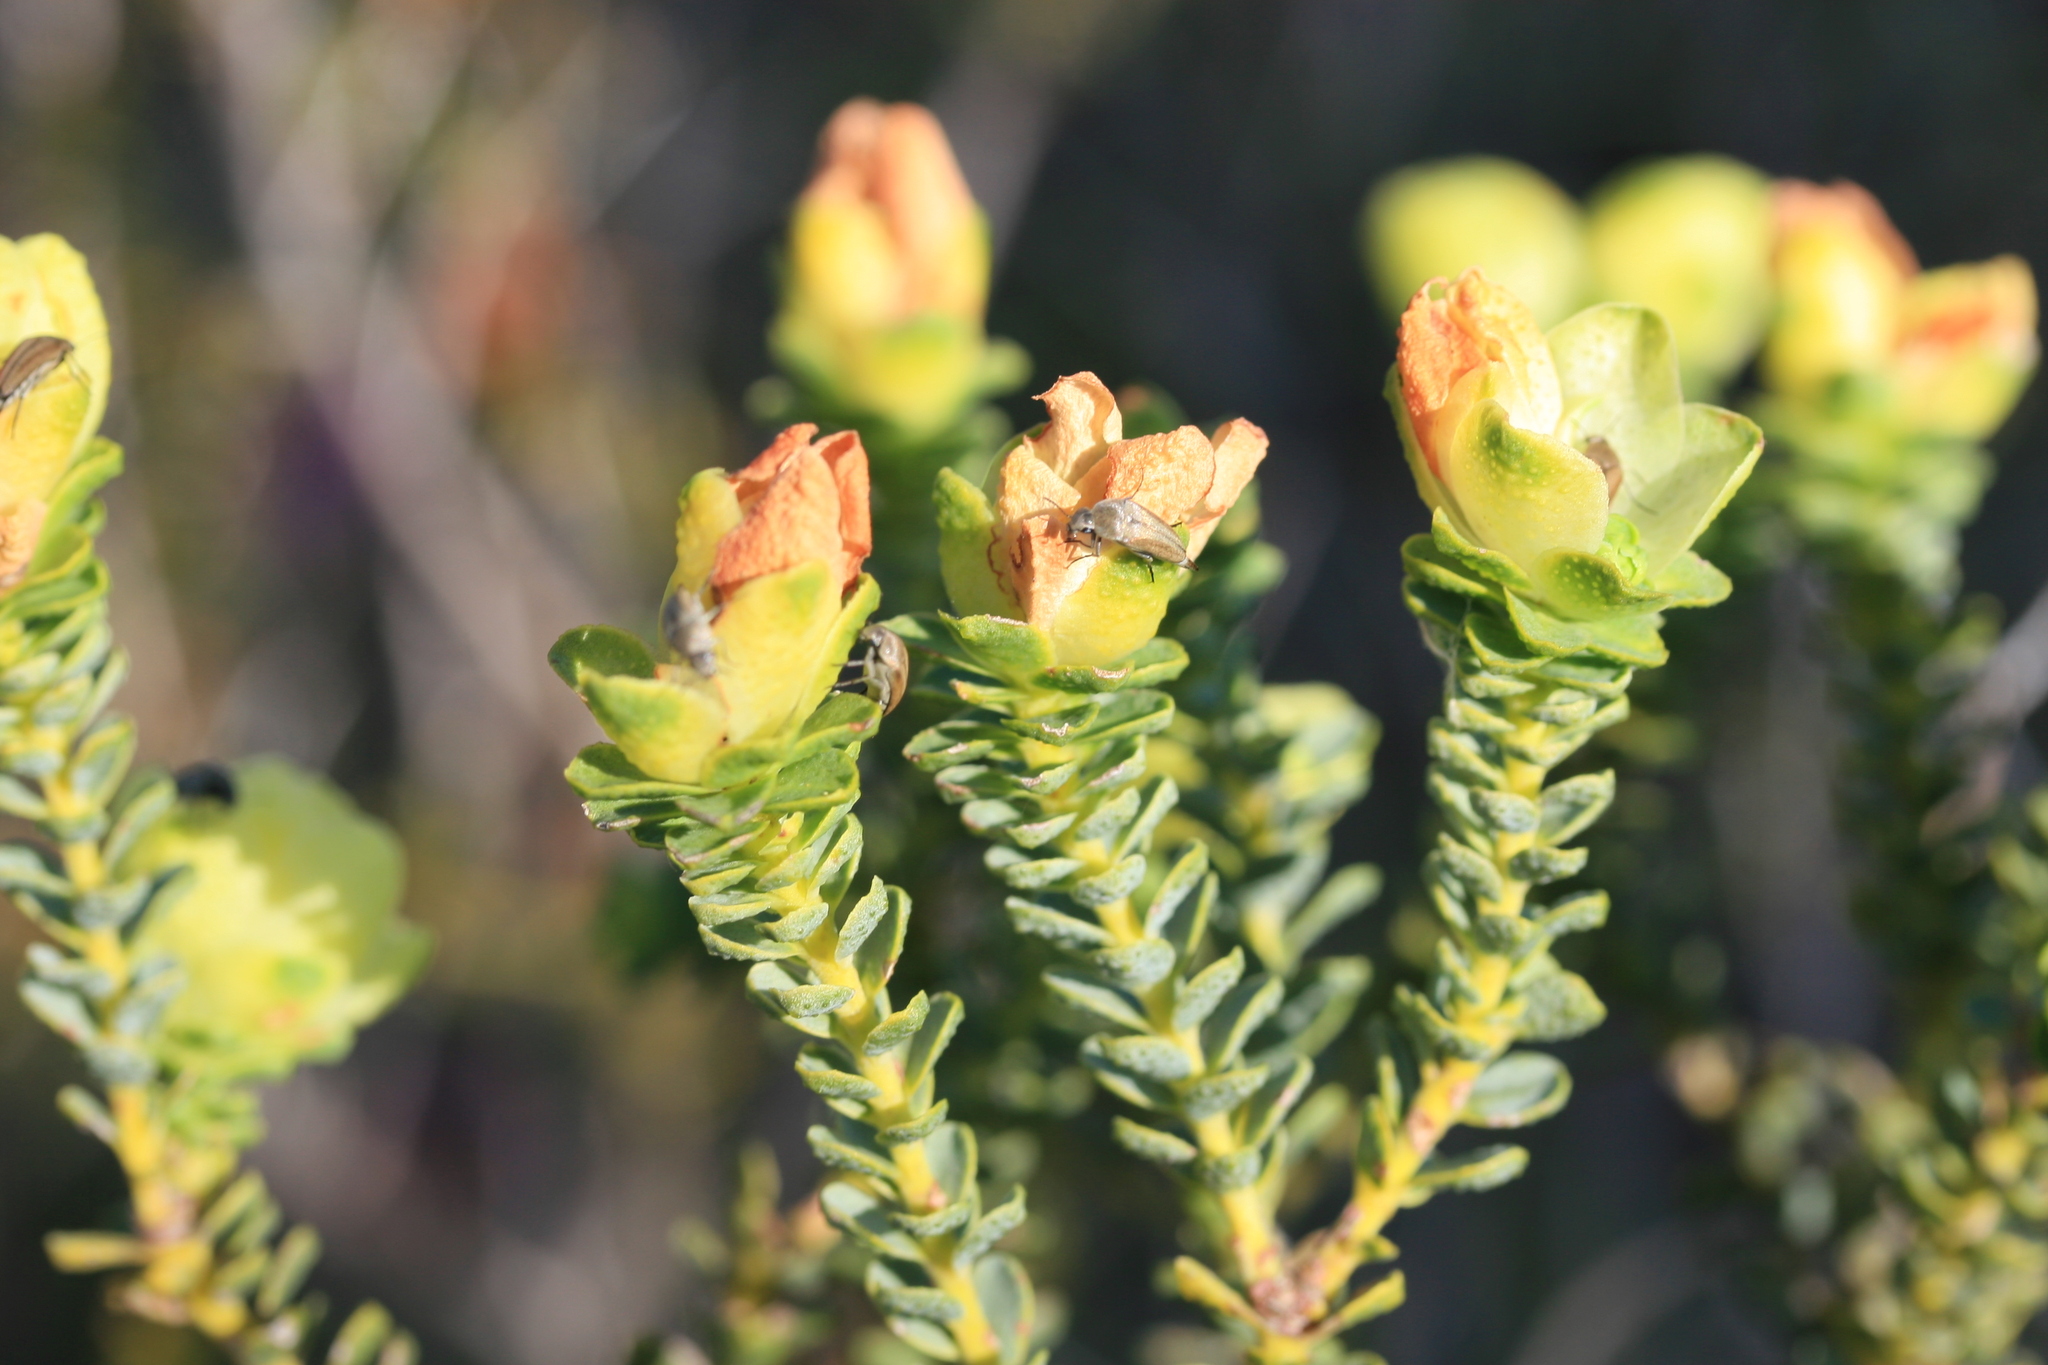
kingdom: Animalia
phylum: Arthropoda
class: Insecta
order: Coleoptera
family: Mordellidae
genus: Austromordella
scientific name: Austromordella
